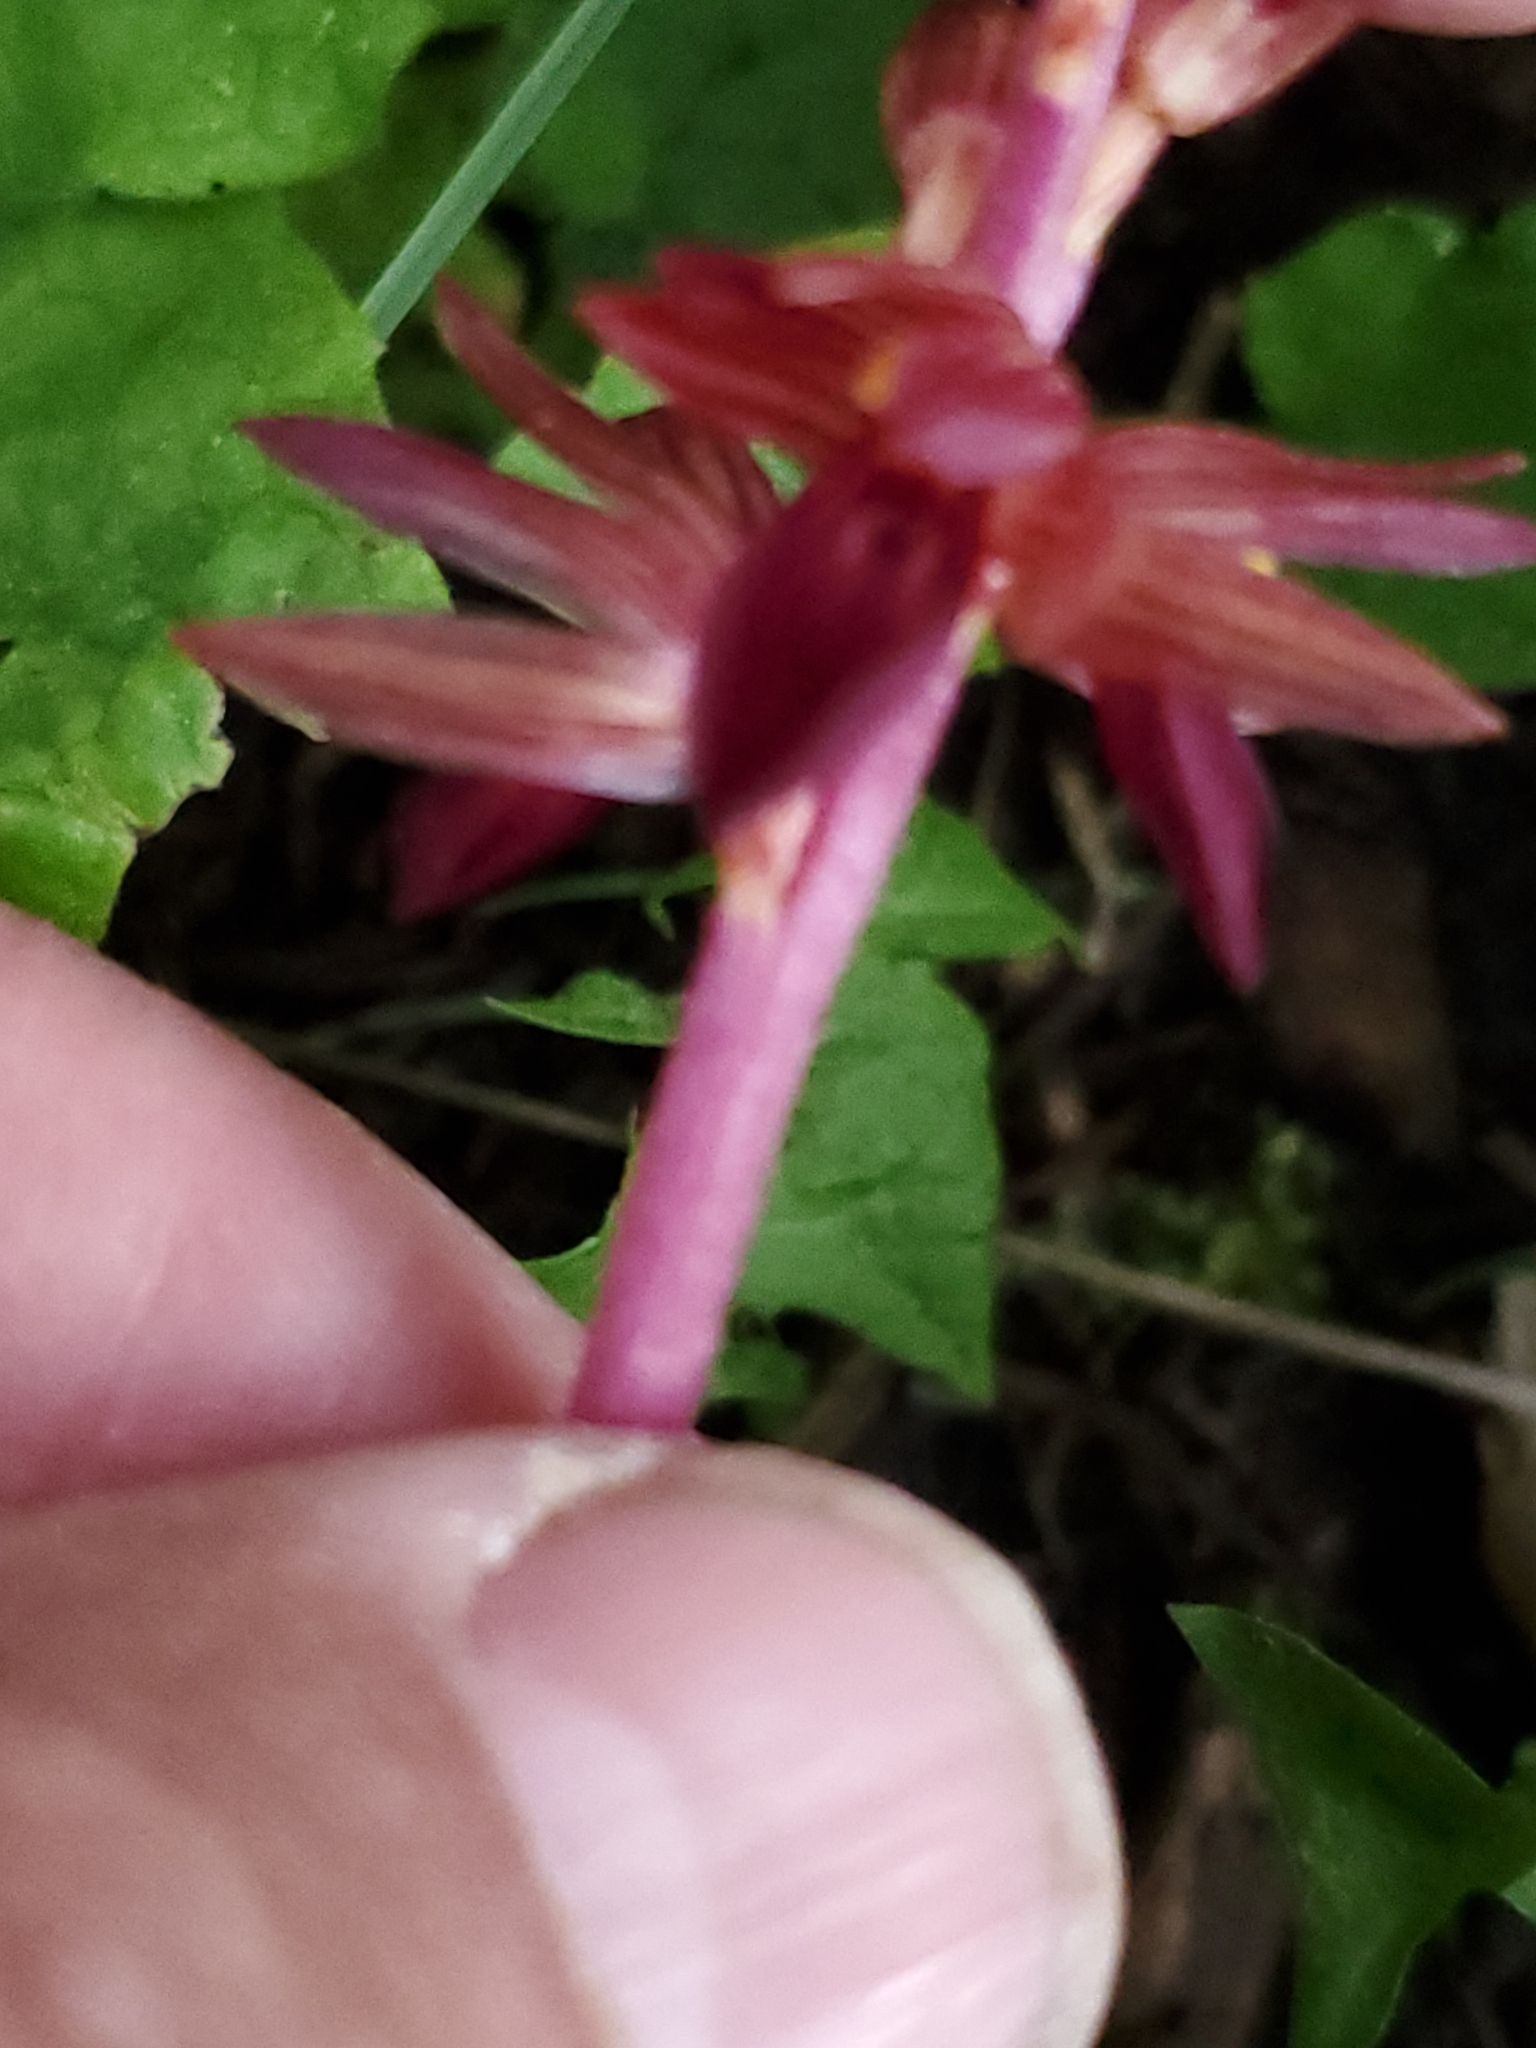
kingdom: Plantae
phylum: Tracheophyta
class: Liliopsida
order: Asparagales
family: Orchidaceae
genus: Corallorhiza
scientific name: Corallorhiza striata
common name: Hooded coralroot
